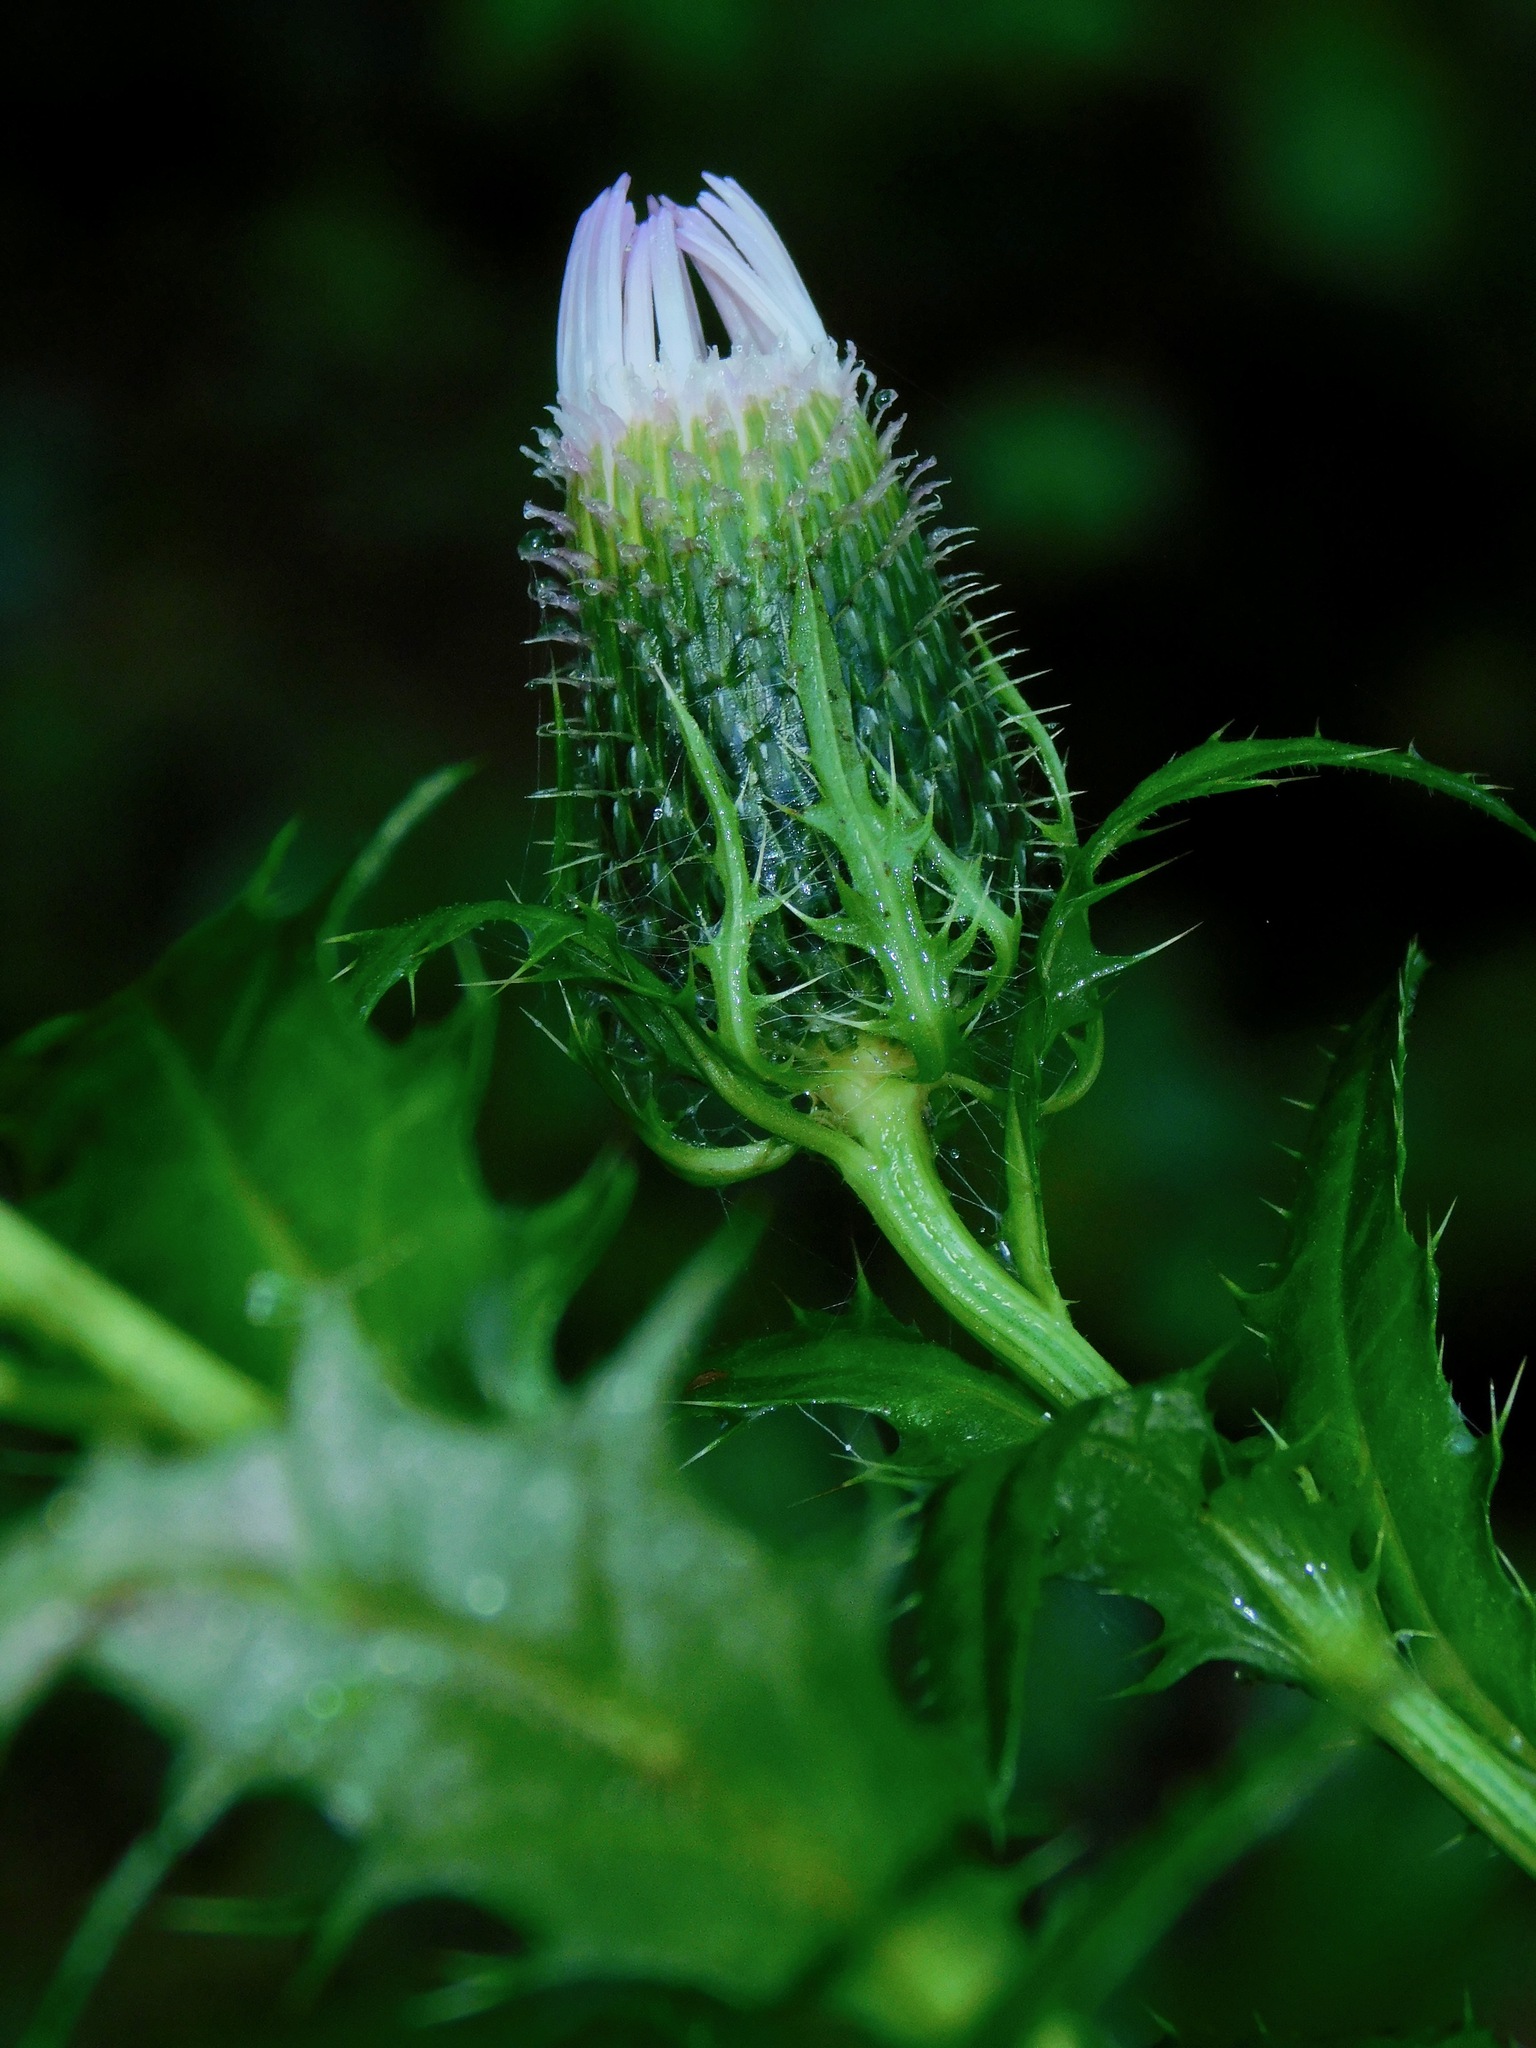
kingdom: Plantae
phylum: Tracheophyta
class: Magnoliopsida
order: Asterales
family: Asteraceae
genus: Cirsium
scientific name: Cirsium altissimum
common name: Roadside thistle
